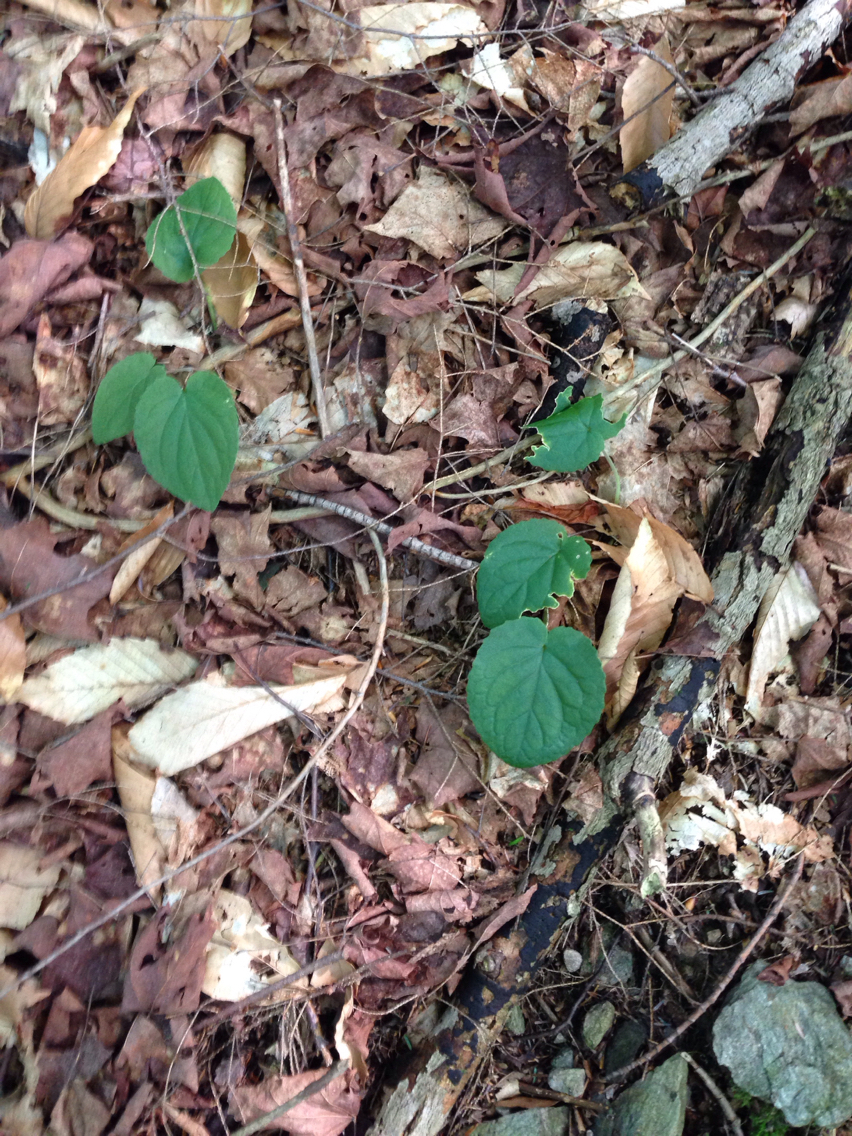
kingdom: Plantae
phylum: Tracheophyta
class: Magnoliopsida
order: Malpighiales
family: Violaceae
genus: Viola
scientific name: Viola rotundifolia
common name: Early yellow violet
